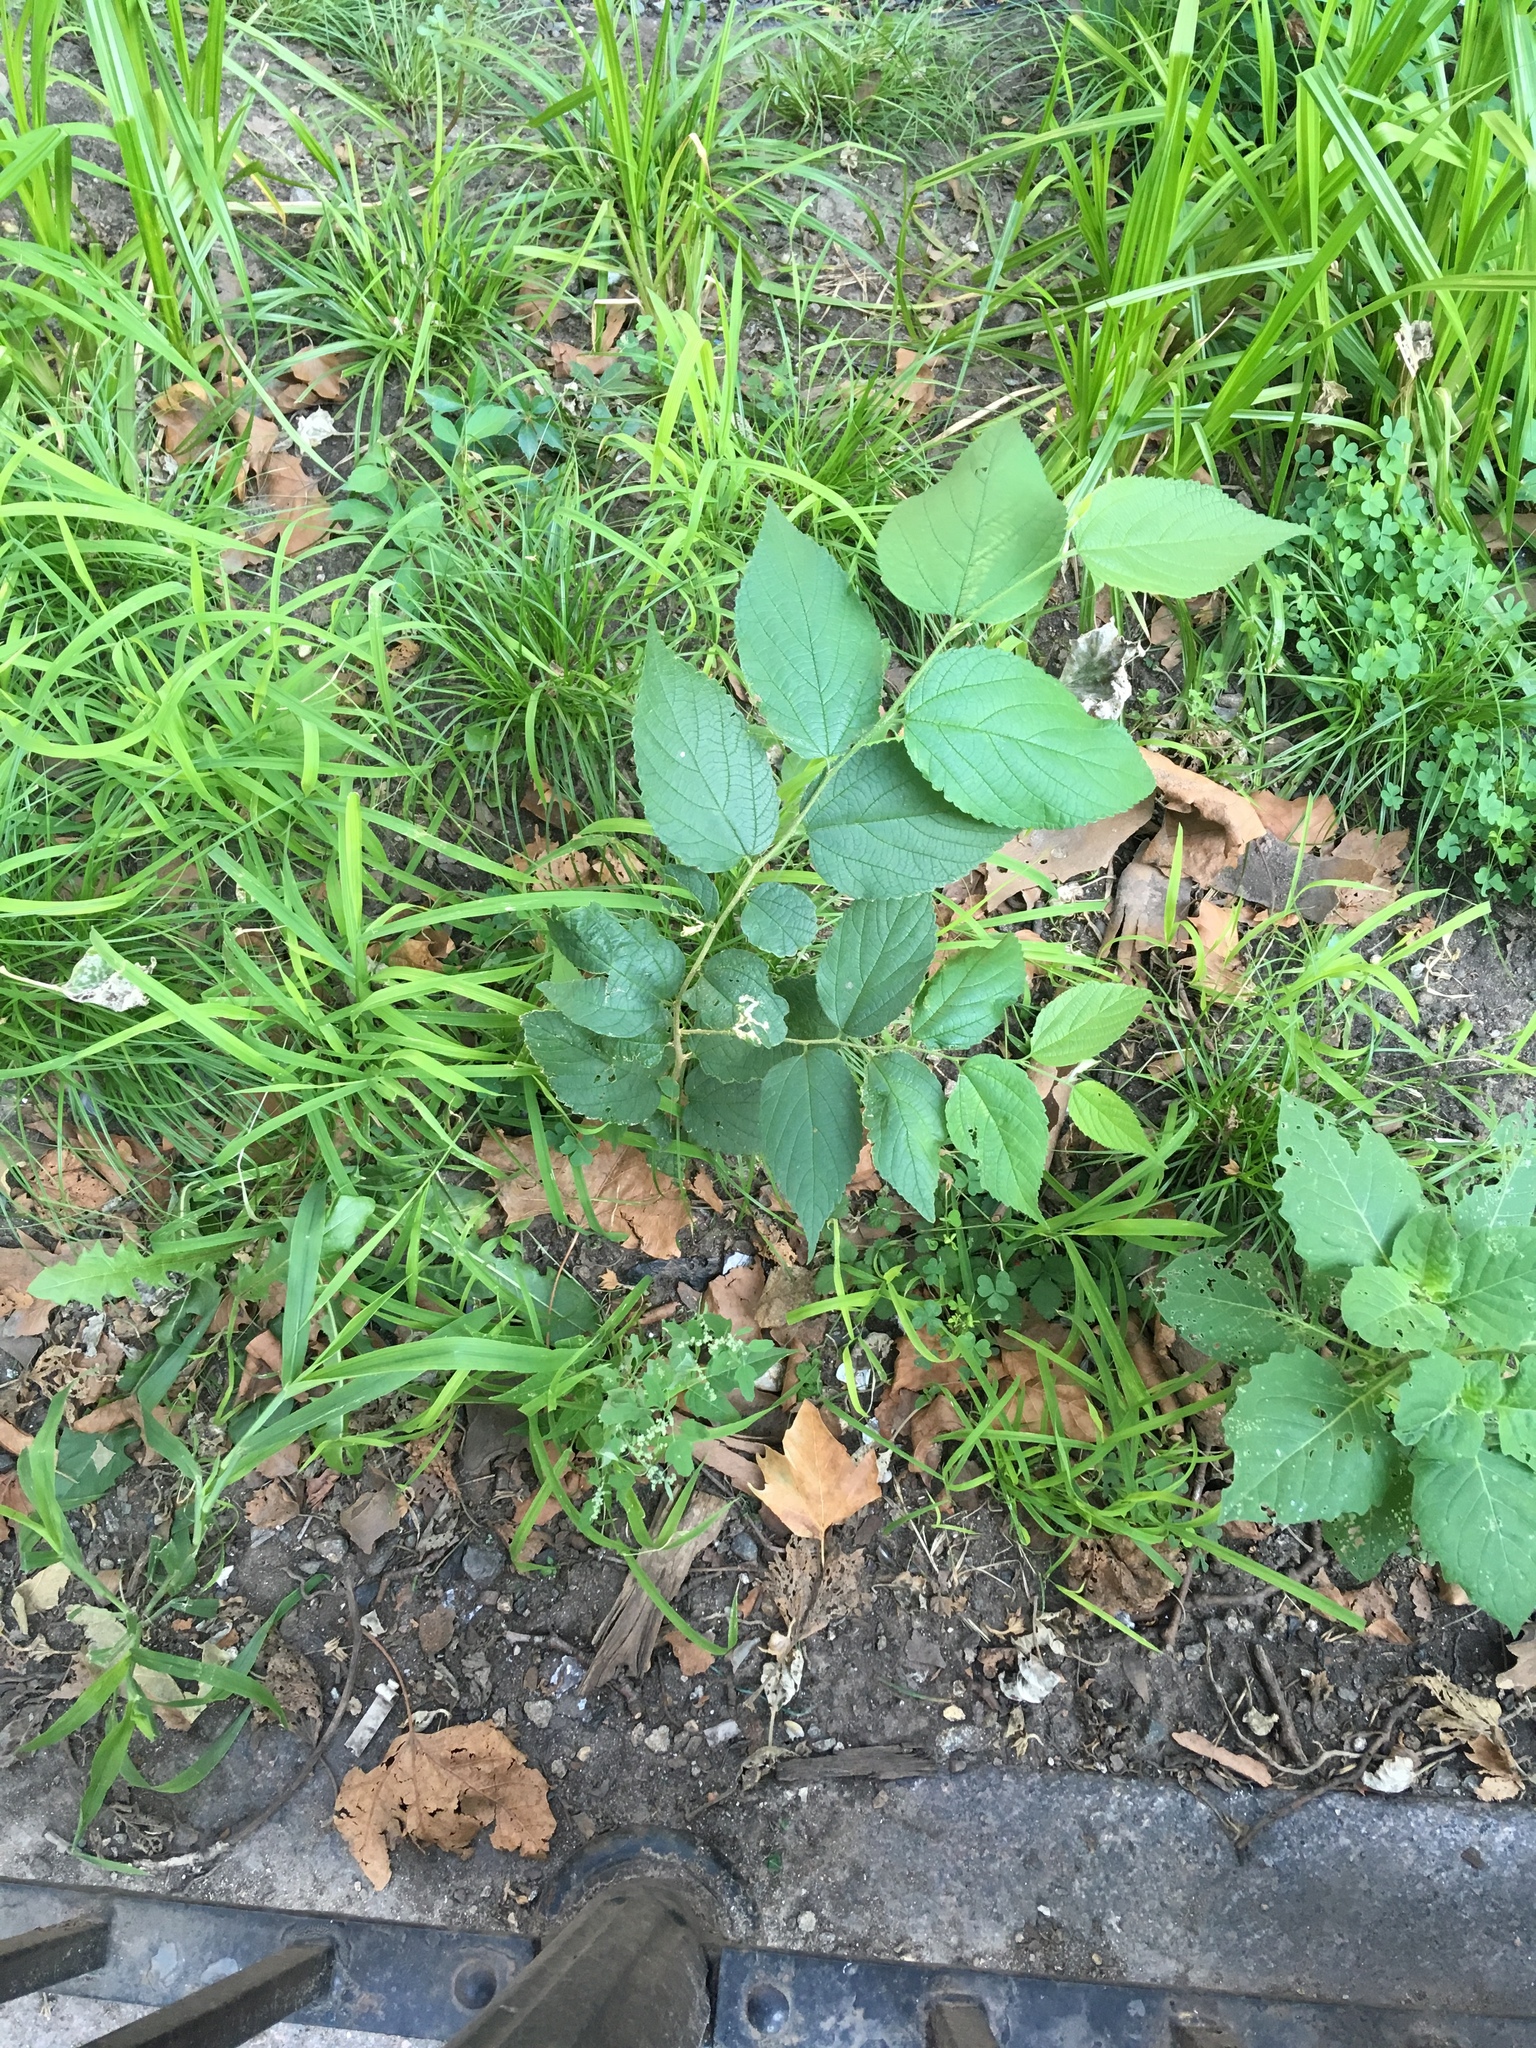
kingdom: Plantae
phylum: Tracheophyta
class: Magnoliopsida
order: Rosales
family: Cannabaceae
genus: Celtis
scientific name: Celtis occidentalis
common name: Common hackberry
